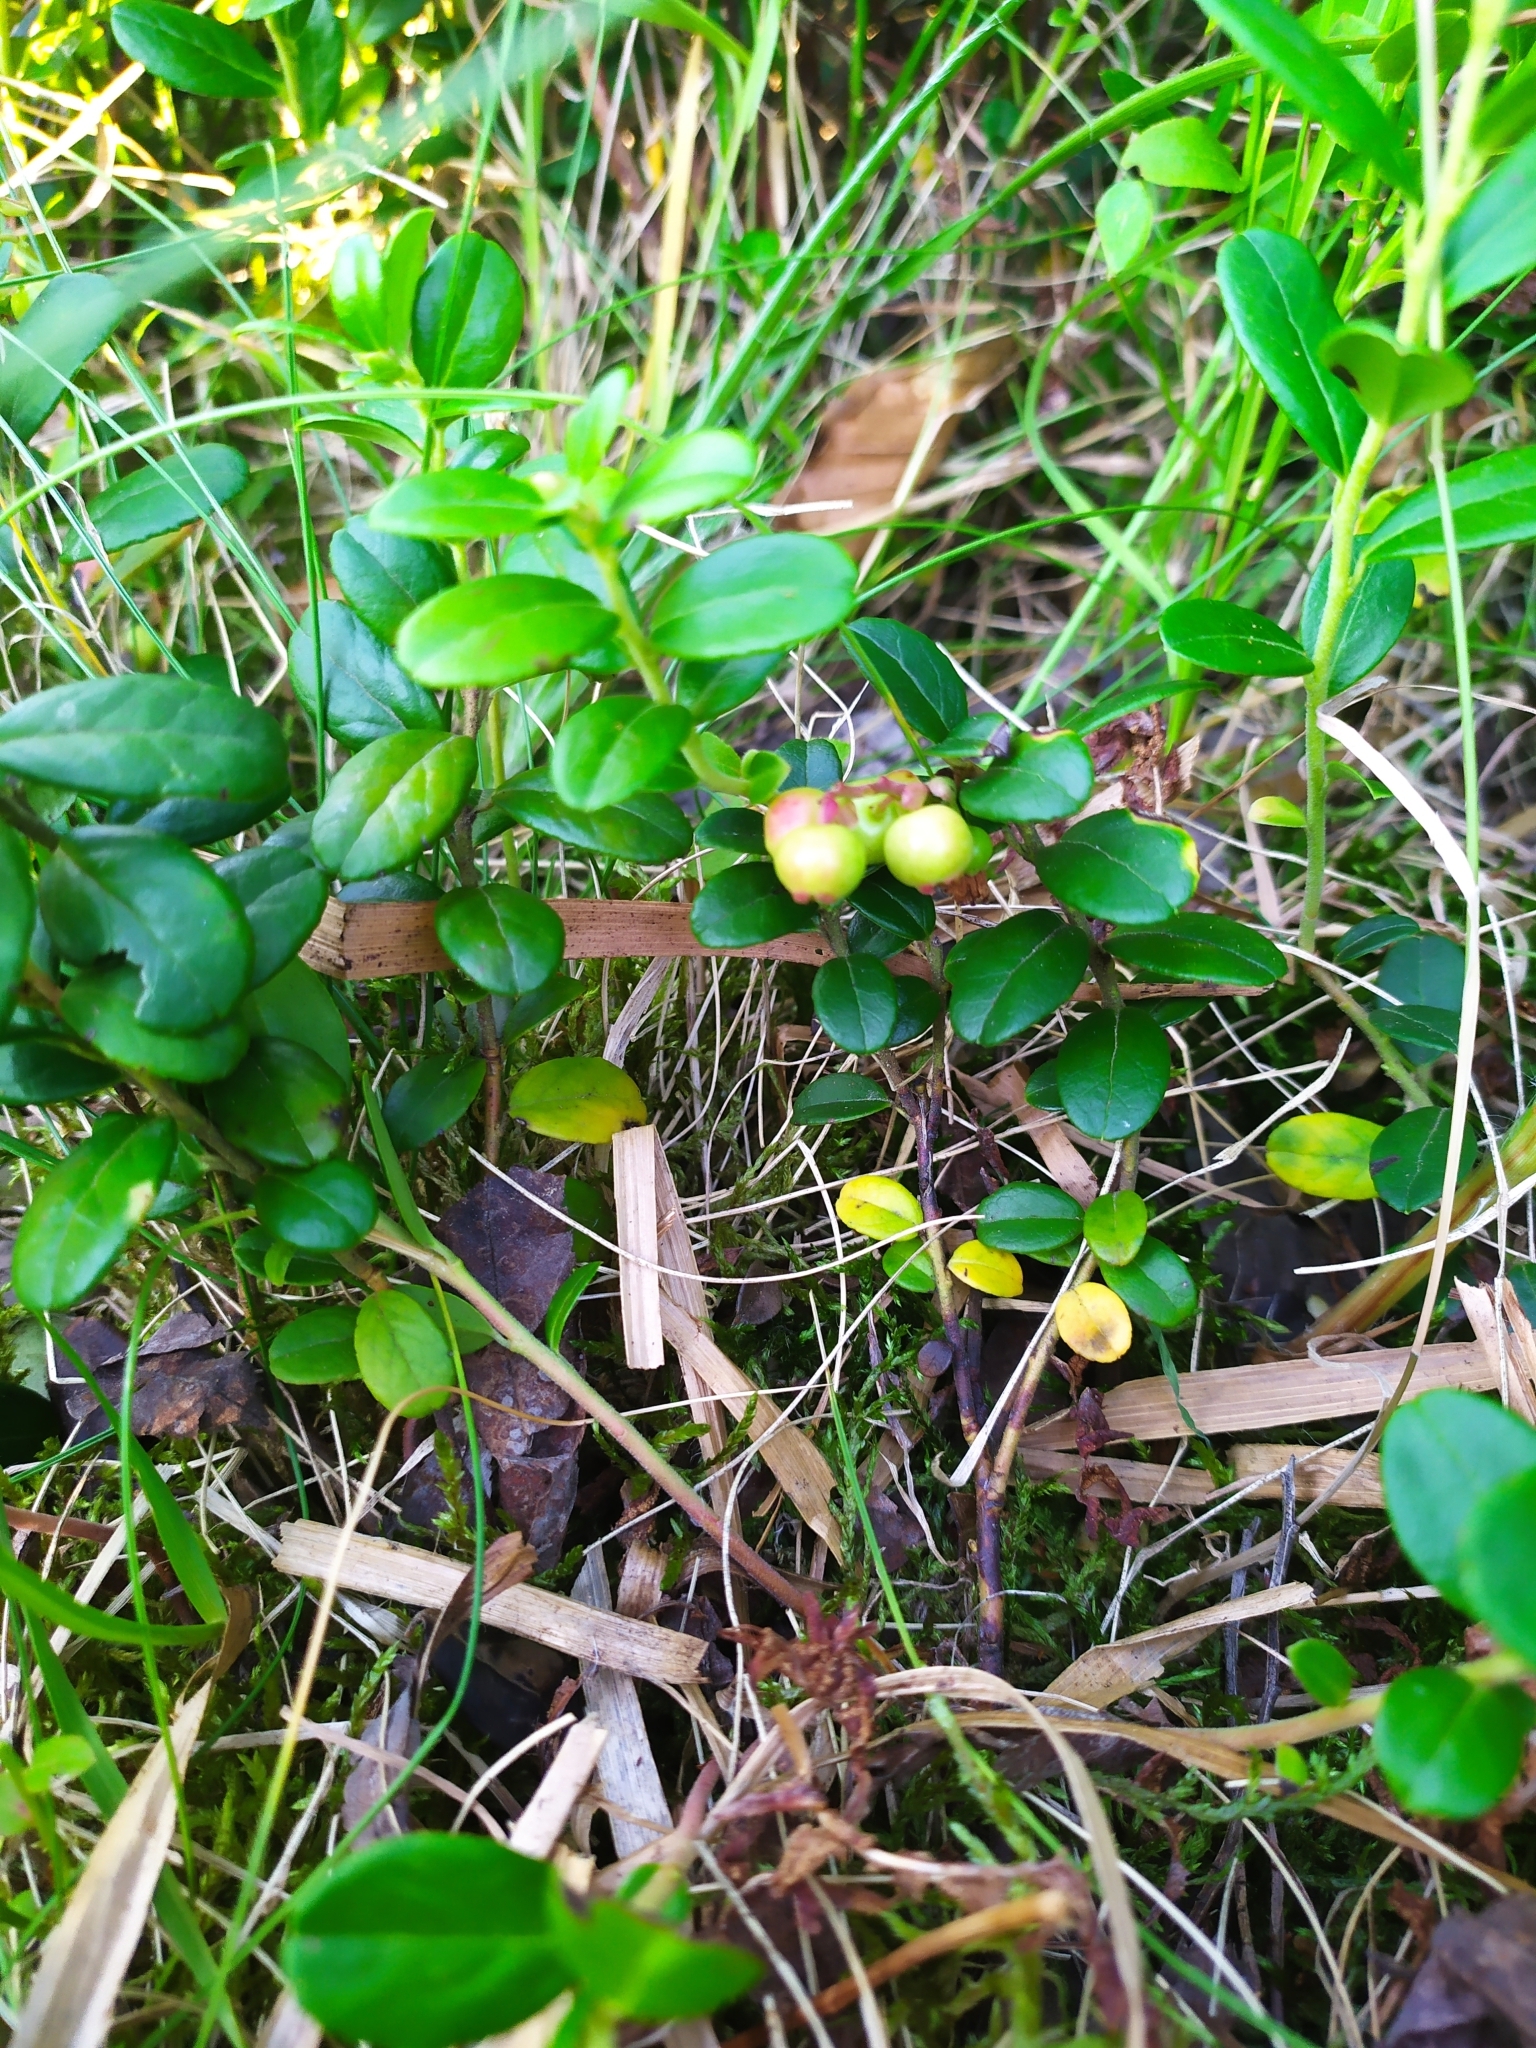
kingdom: Plantae
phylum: Tracheophyta
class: Magnoliopsida
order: Ericales
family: Ericaceae
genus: Vaccinium
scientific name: Vaccinium vitis-idaea
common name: Cowberry
